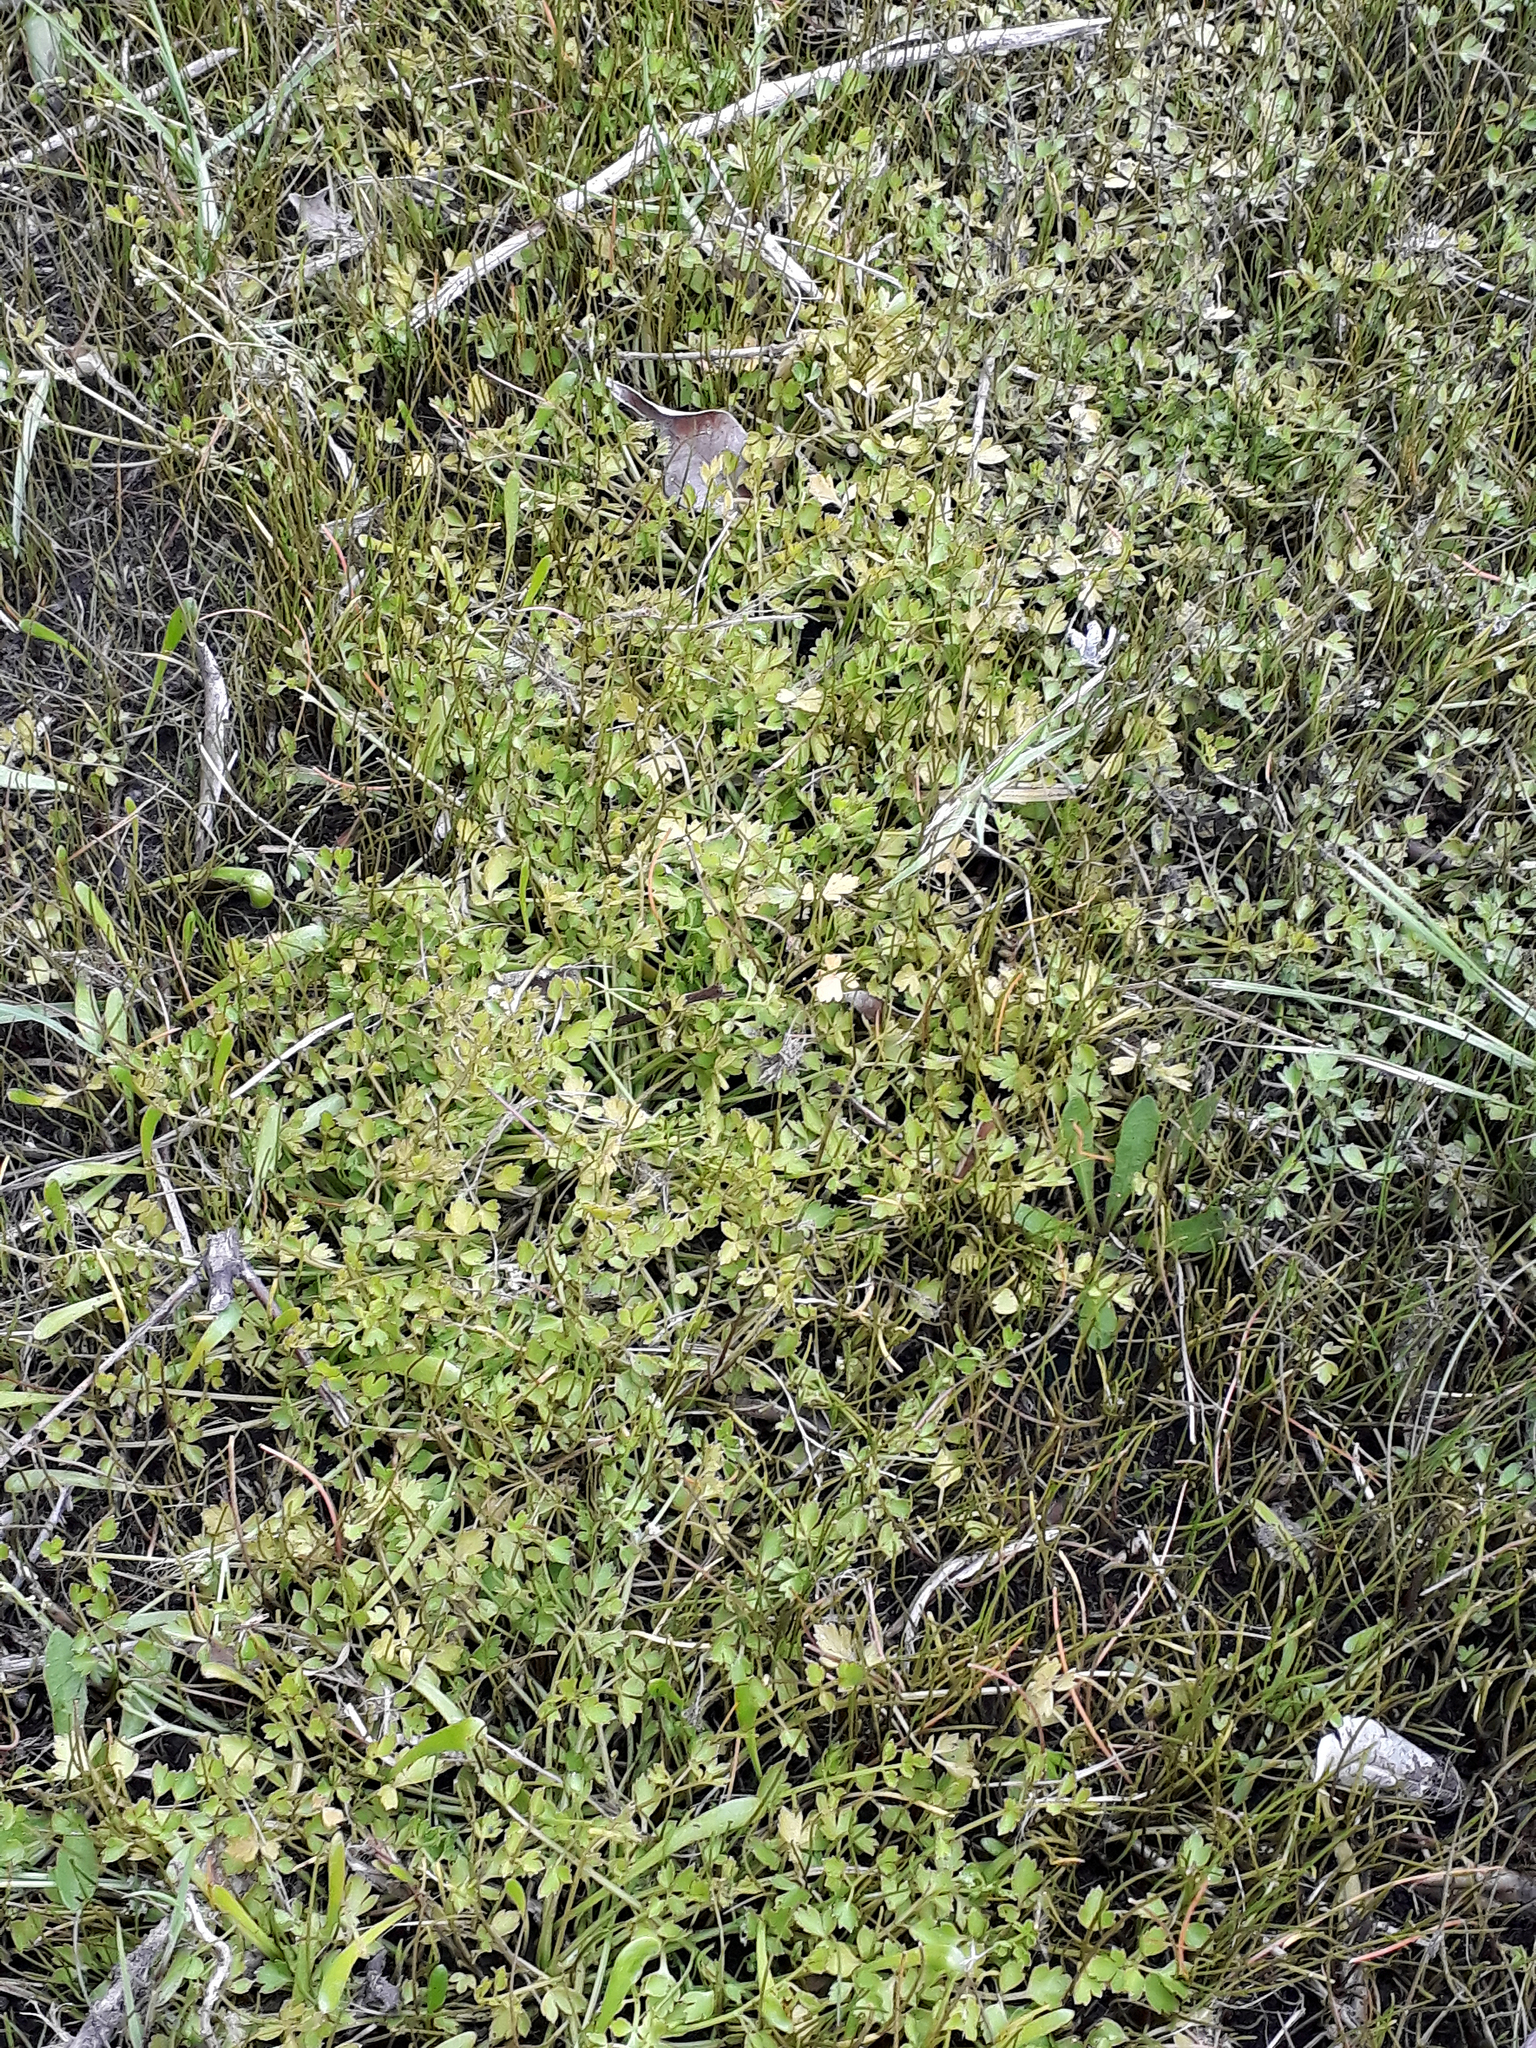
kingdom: Plantae
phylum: Tracheophyta
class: Magnoliopsida
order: Apiales
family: Apiaceae
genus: Apium
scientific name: Apium prostratum
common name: Prostrate marshwort
